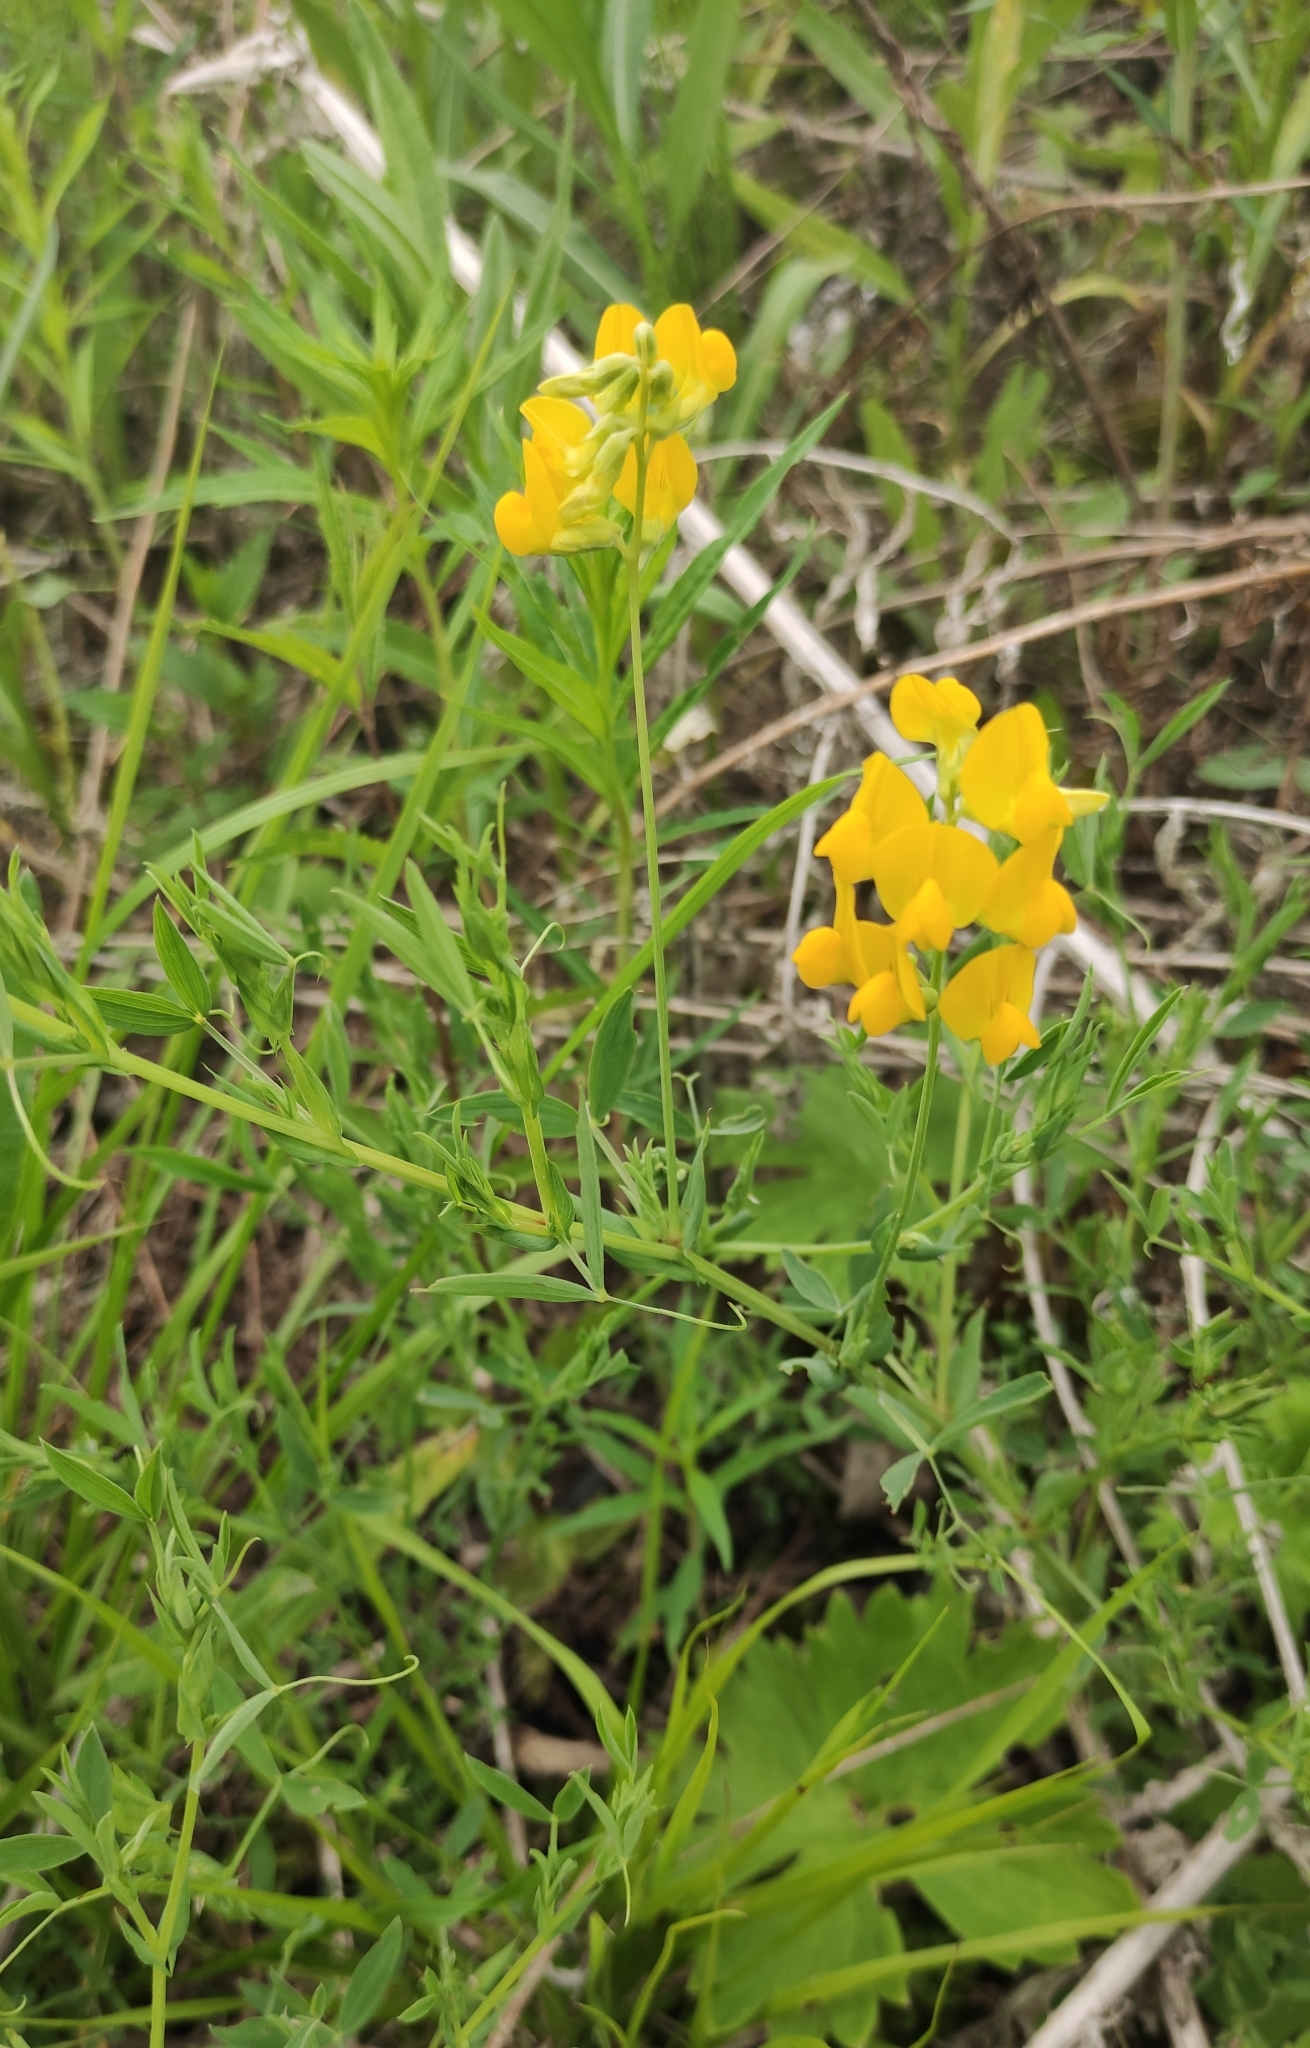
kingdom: Plantae
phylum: Tracheophyta
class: Magnoliopsida
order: Fabales
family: Fabaceae
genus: Lathyrus
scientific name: Lathyrus pratensis
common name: Meadow vetchling
